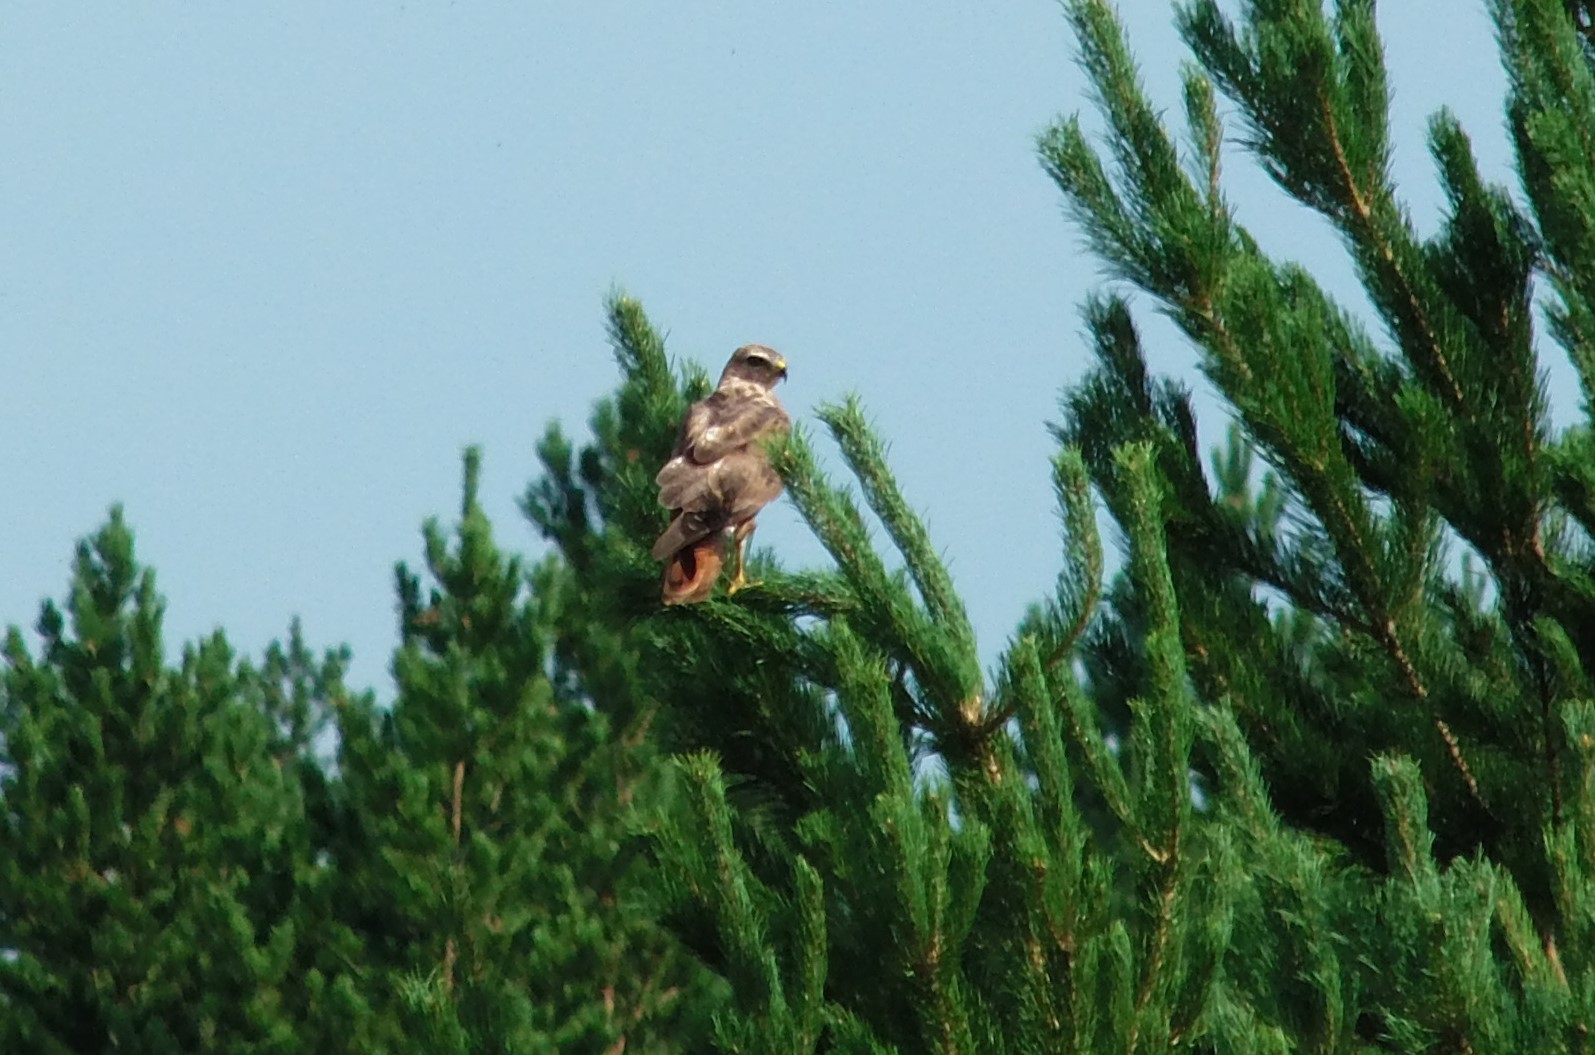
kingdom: Animalia
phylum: Chordata
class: Aves
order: Accipitriformes
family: Accipitridae
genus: Buteo
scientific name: Buteo buteo
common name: Common buzzard
